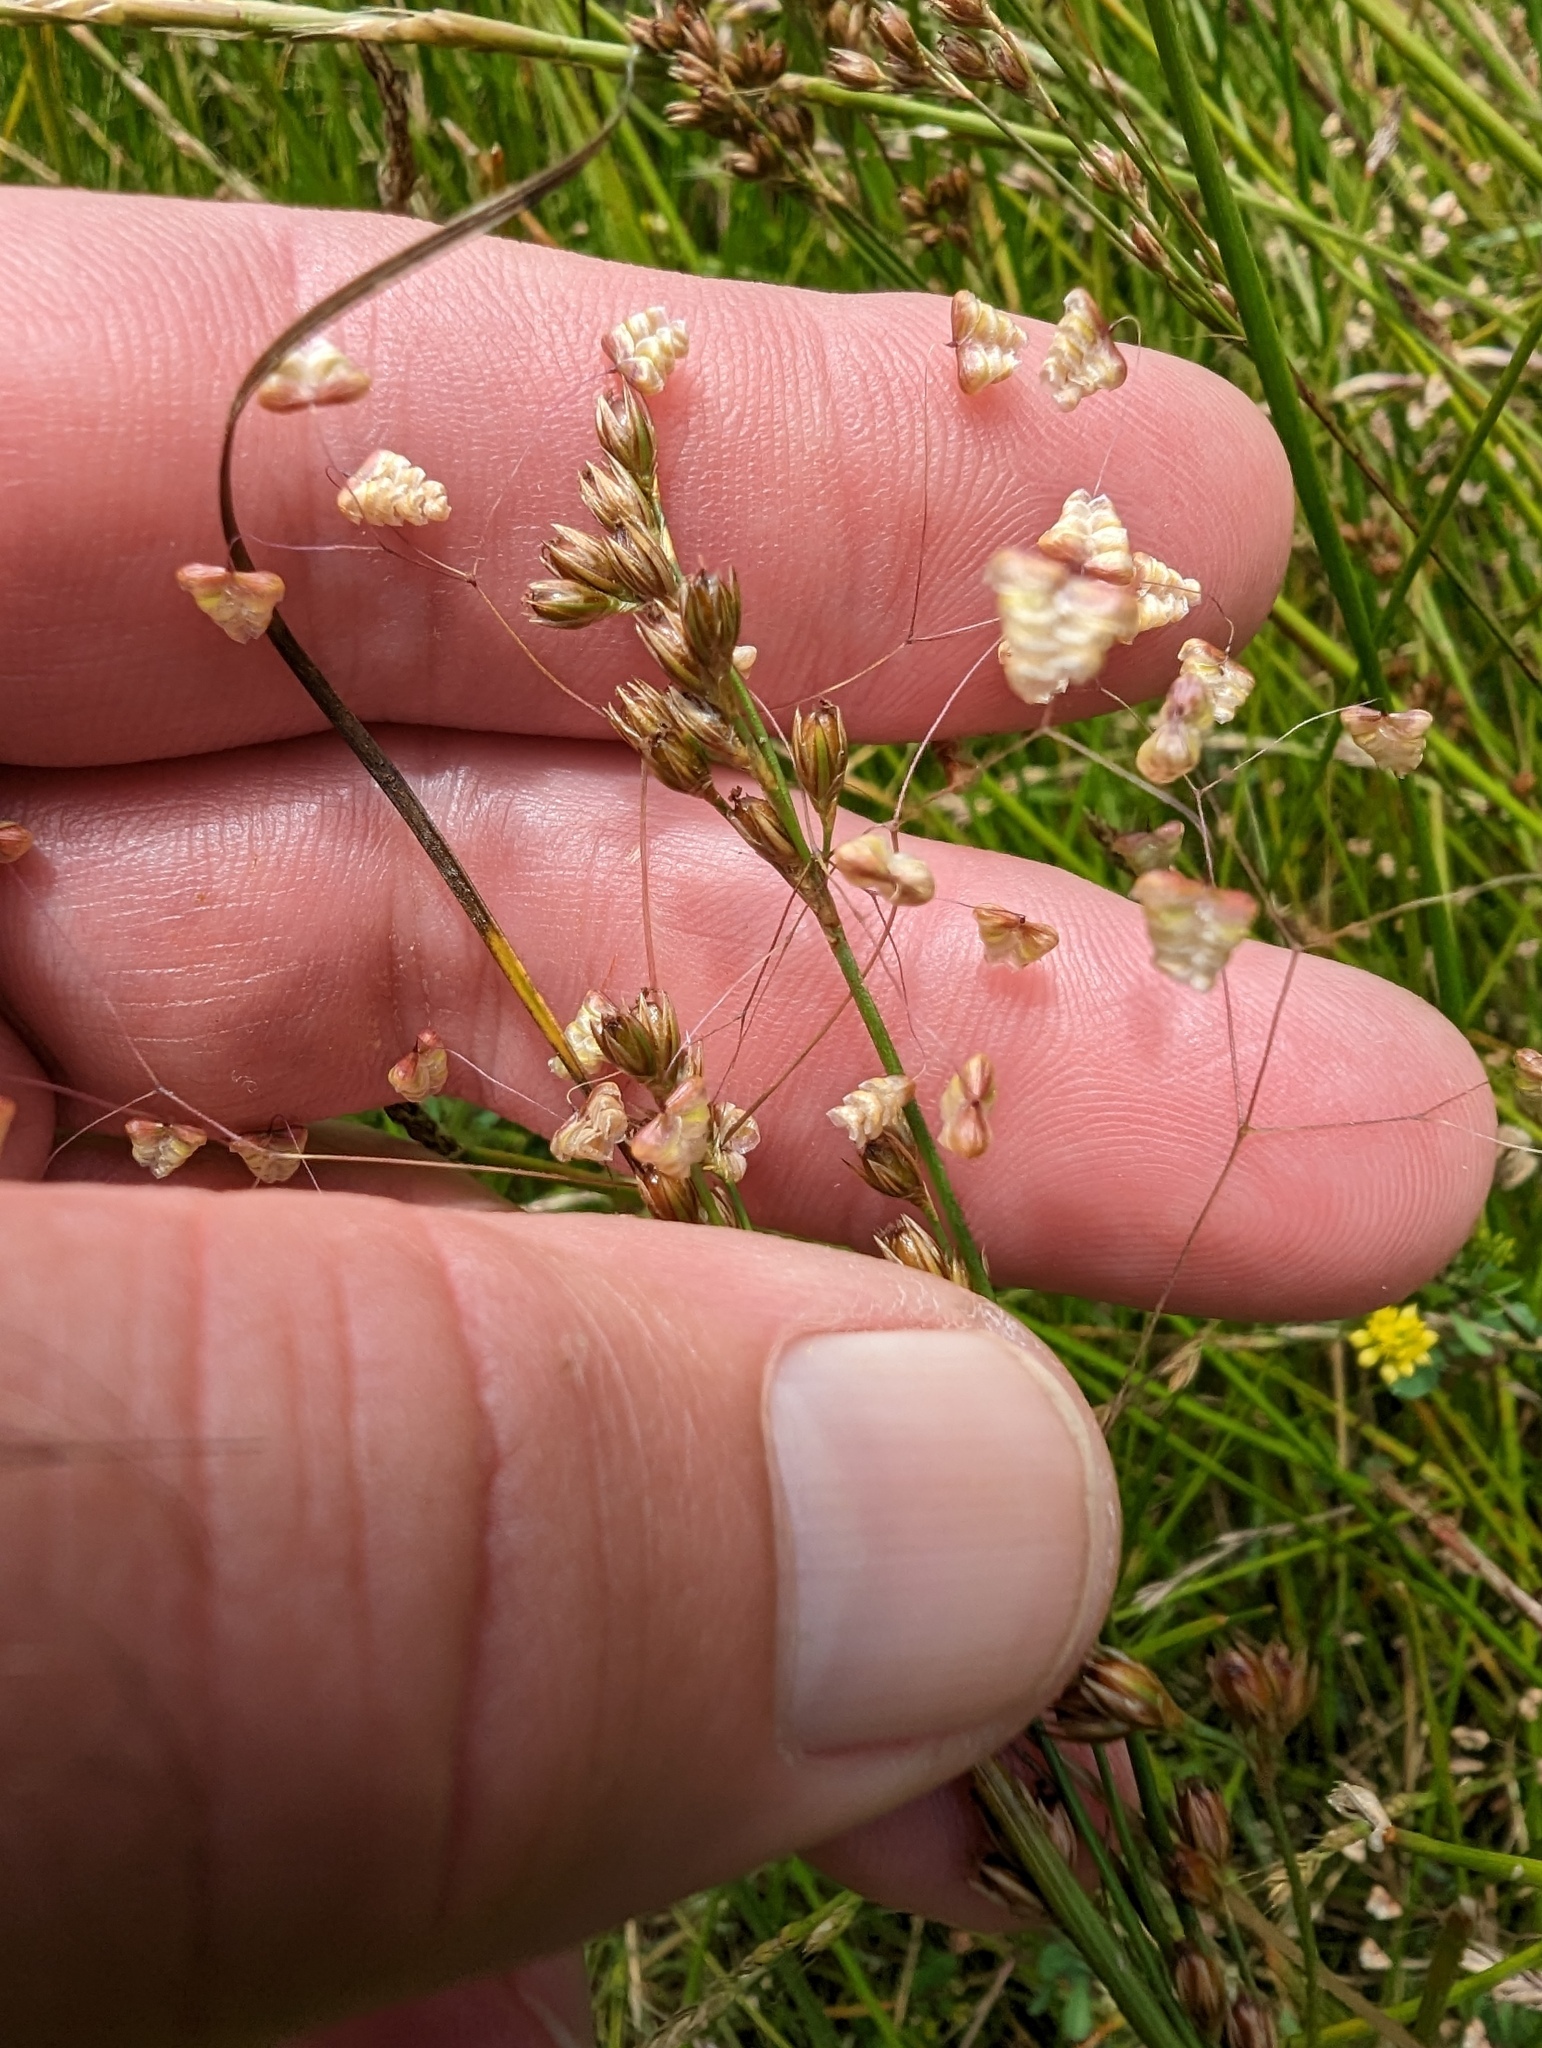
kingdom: Plantae
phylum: Tracheophyta
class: Liliopsida
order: Poales
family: Poaceae
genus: Briza
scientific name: Briza minor
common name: Lesser quaking-grass
